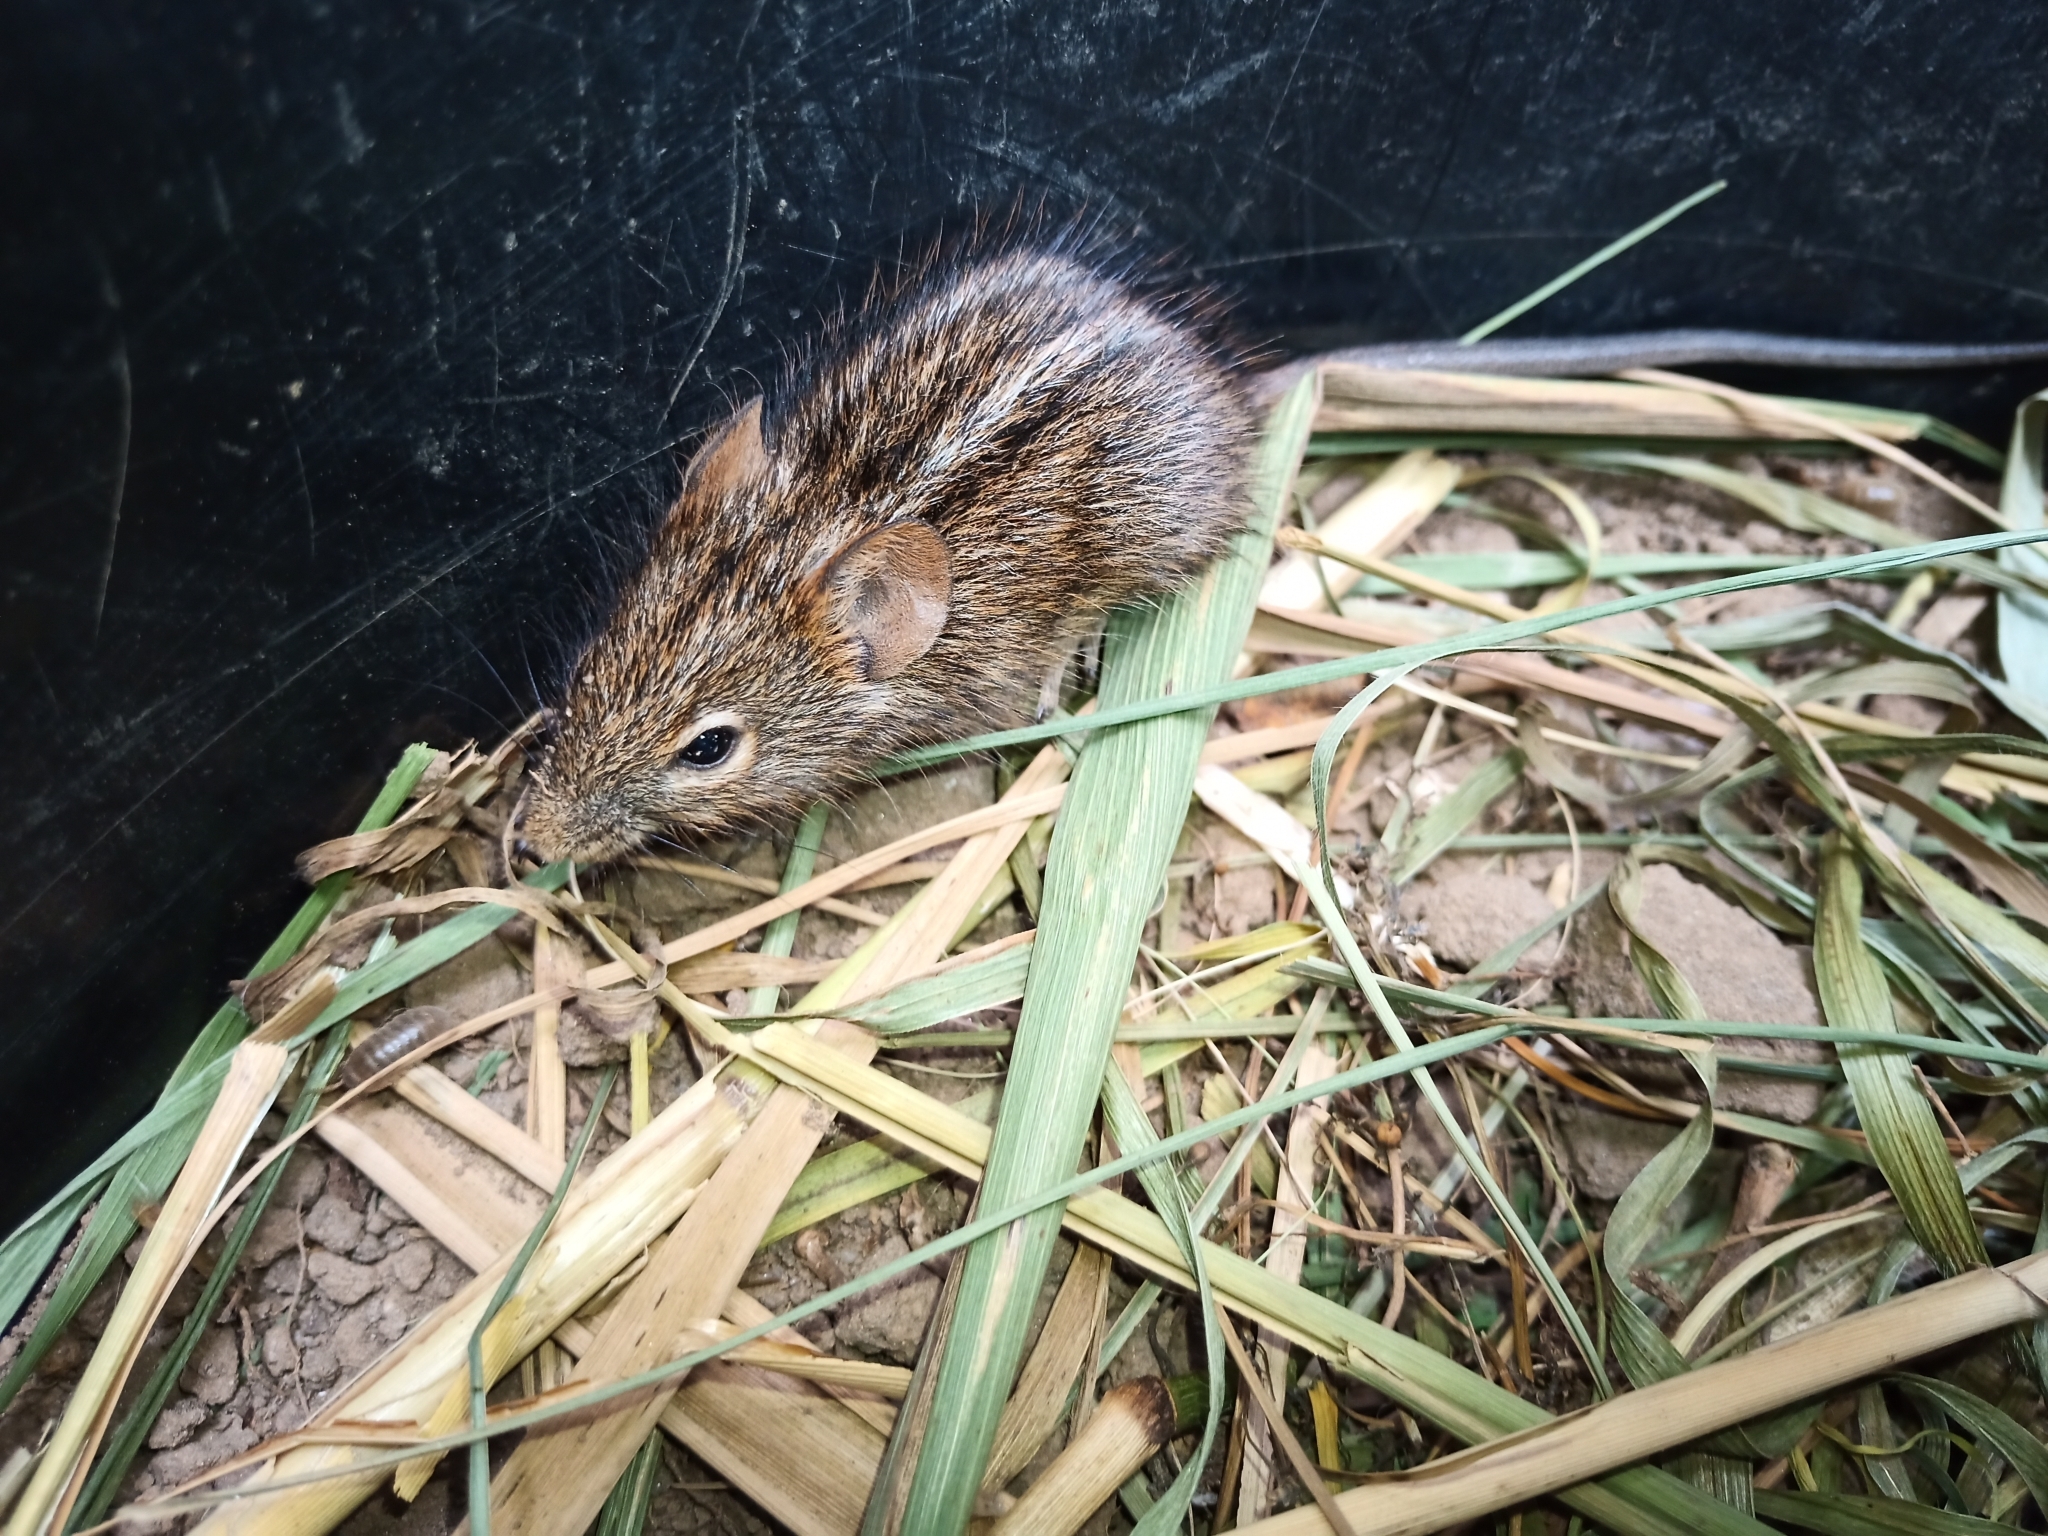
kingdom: Animalia
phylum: Chordata
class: Mammalia
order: Rodentia
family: Muridae
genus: Rhabdomys
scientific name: Rhabdomys pumilio
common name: Xeric four-striped grass rat
